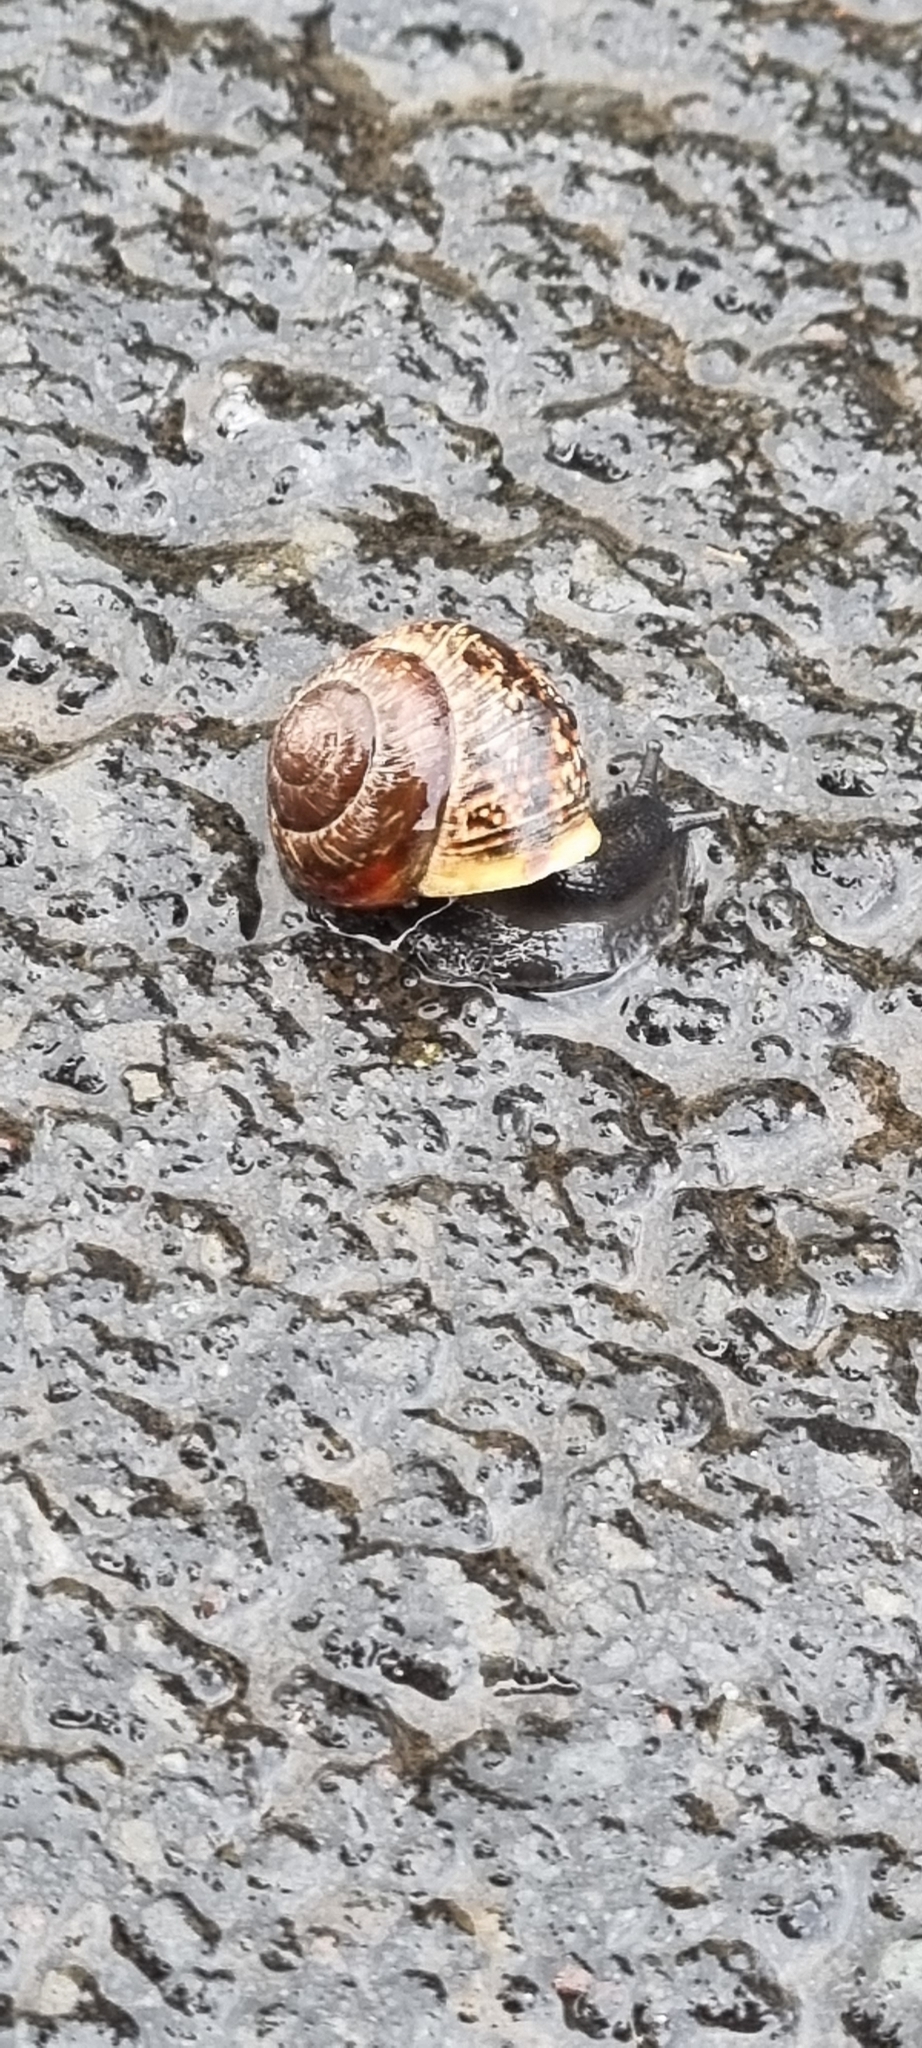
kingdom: Animalia
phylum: Mollusca
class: Gastropoda
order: Stylommatophora
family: Helicidae
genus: Arianta
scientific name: Arianta arbustorum
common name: Copse snail
